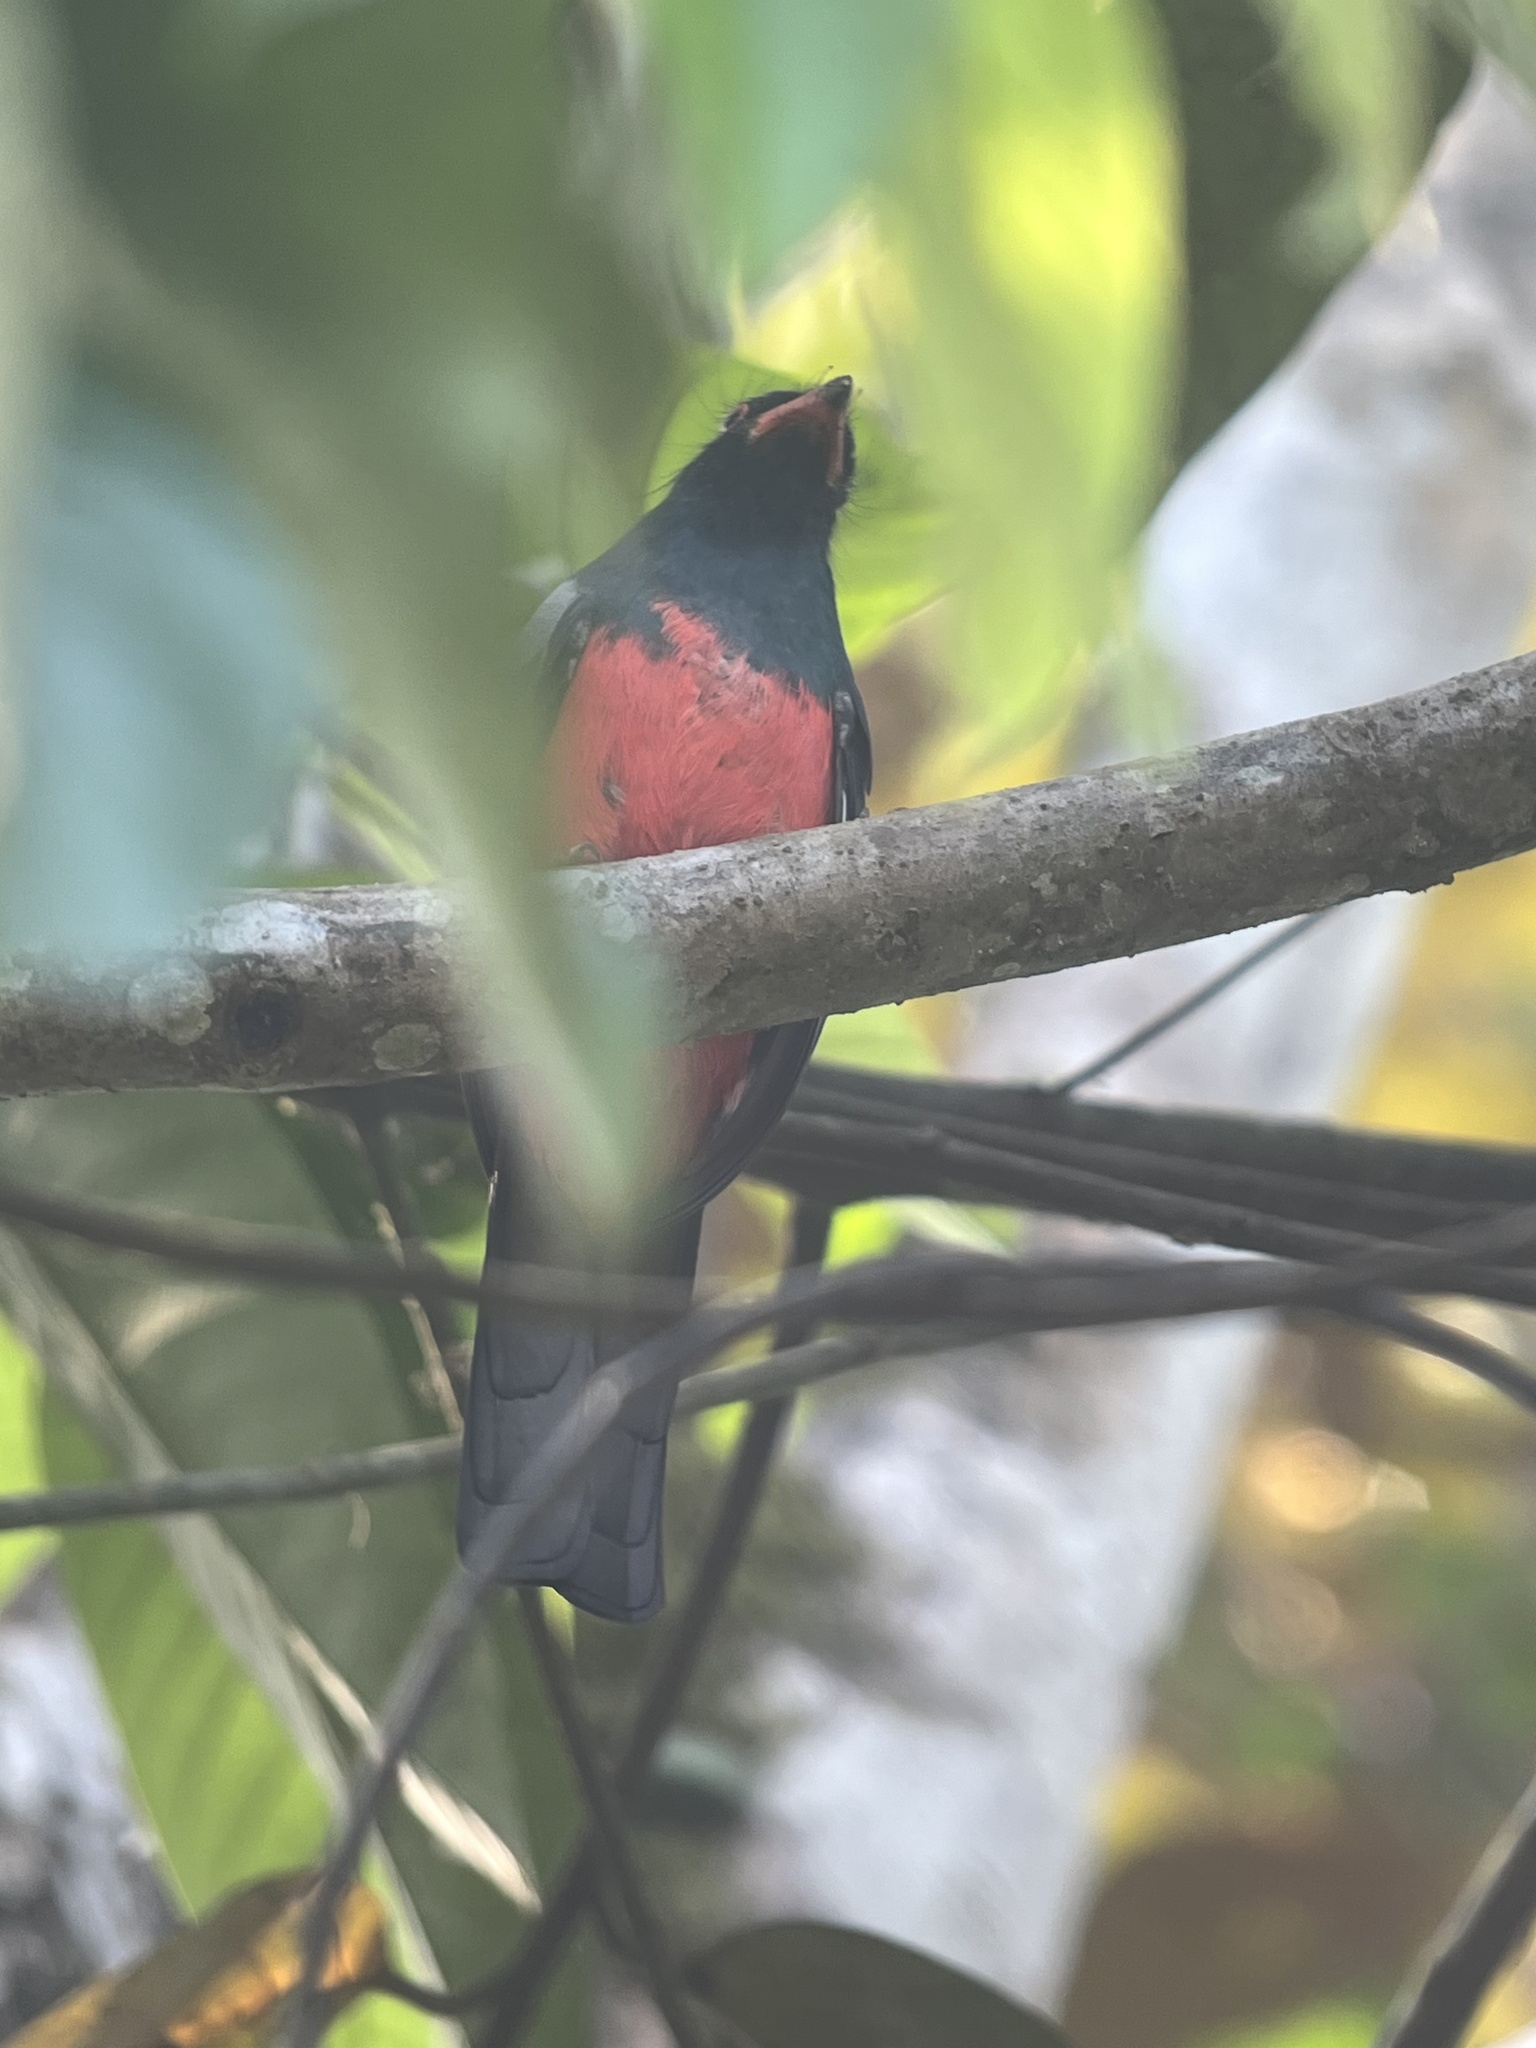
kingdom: Animalia
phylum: Chordata
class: Aves
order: Trogoniformes
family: Trogonidae
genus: Trogon
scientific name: Trogon massena
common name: Slaty-tailed trogon
